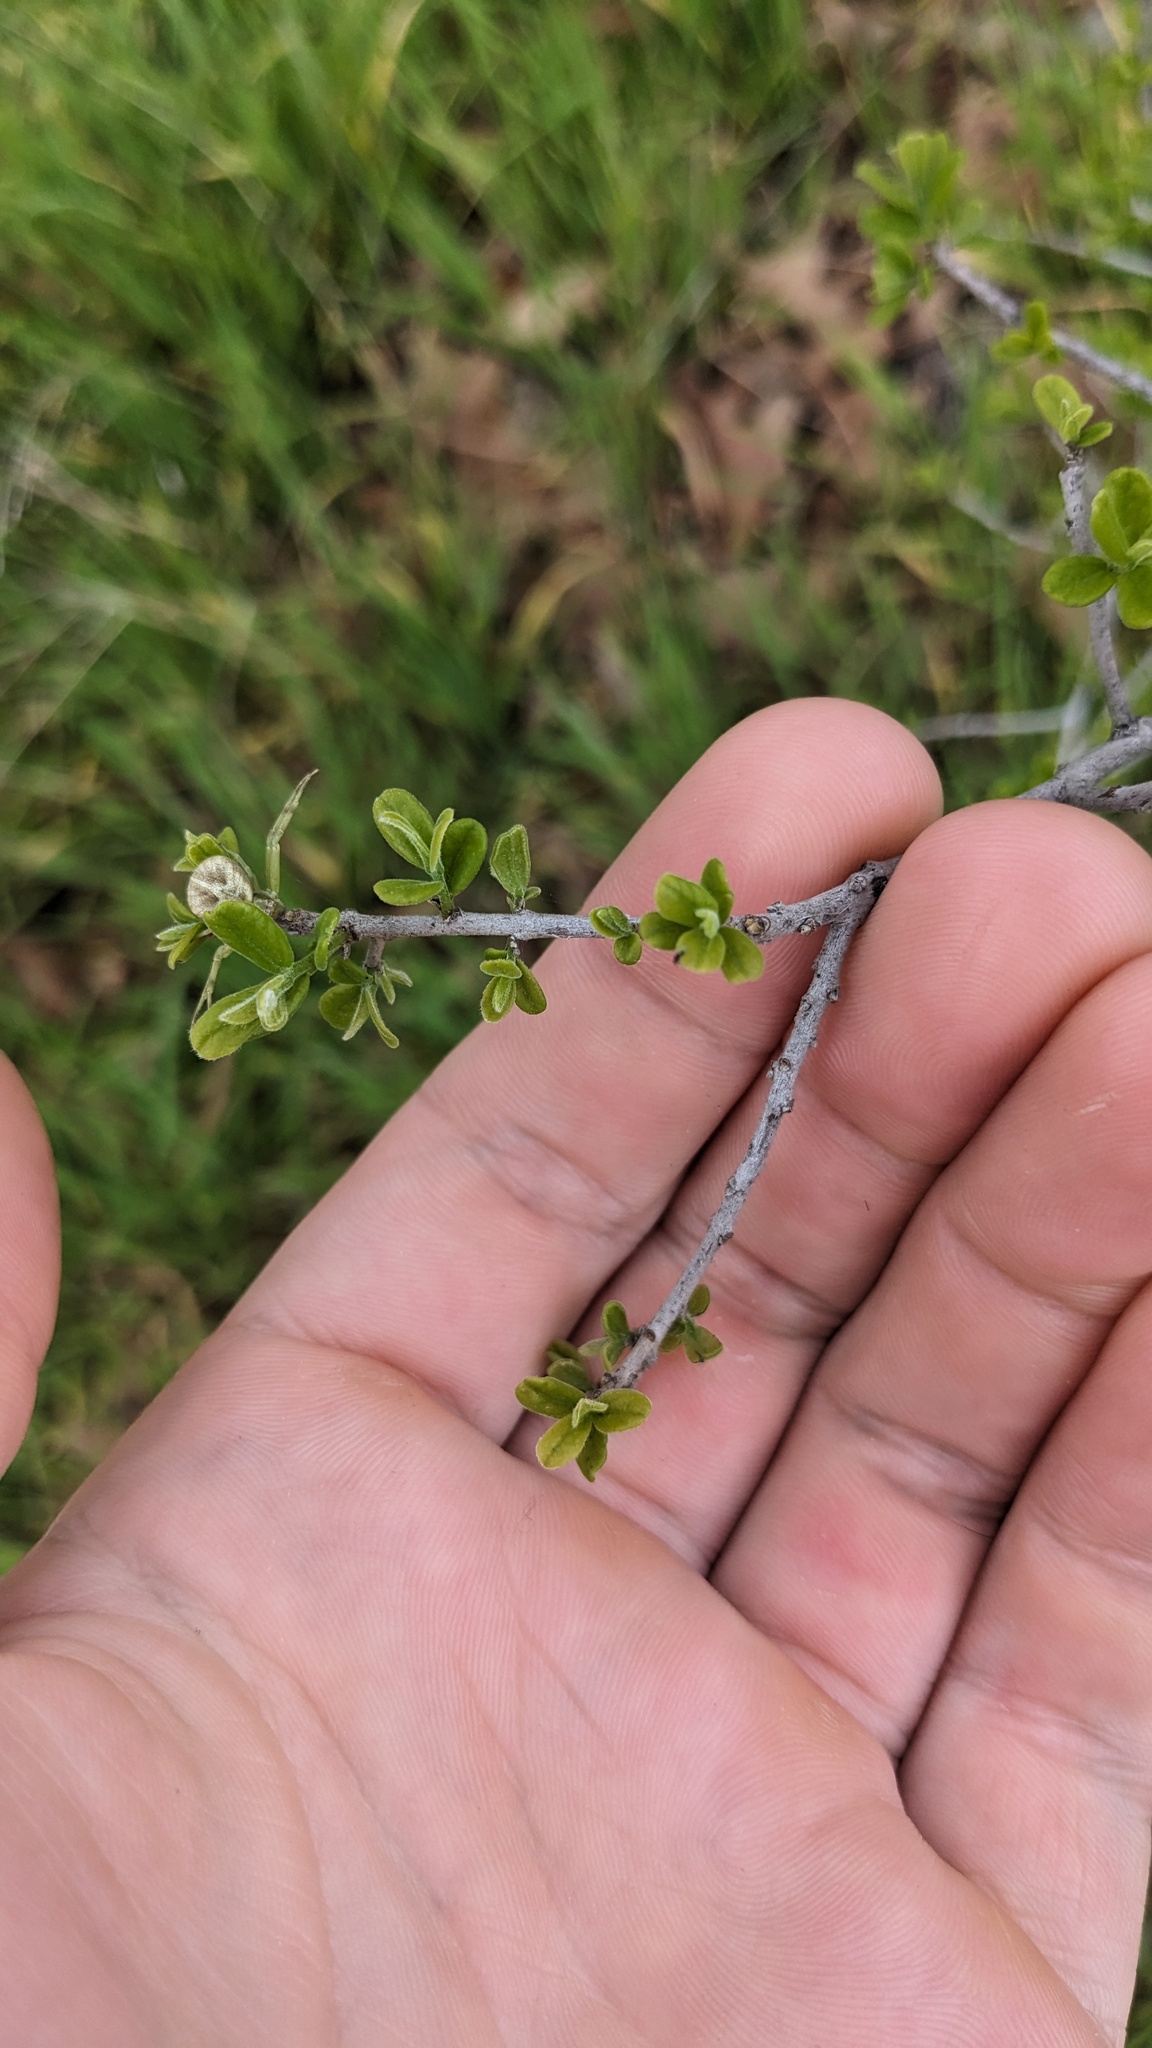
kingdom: Plantae
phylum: Tracheophyta
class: Magnoliopsida
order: Ericales
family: Ebenaceae
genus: Diospyros
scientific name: Diospyros texana
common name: Texas persimmon
